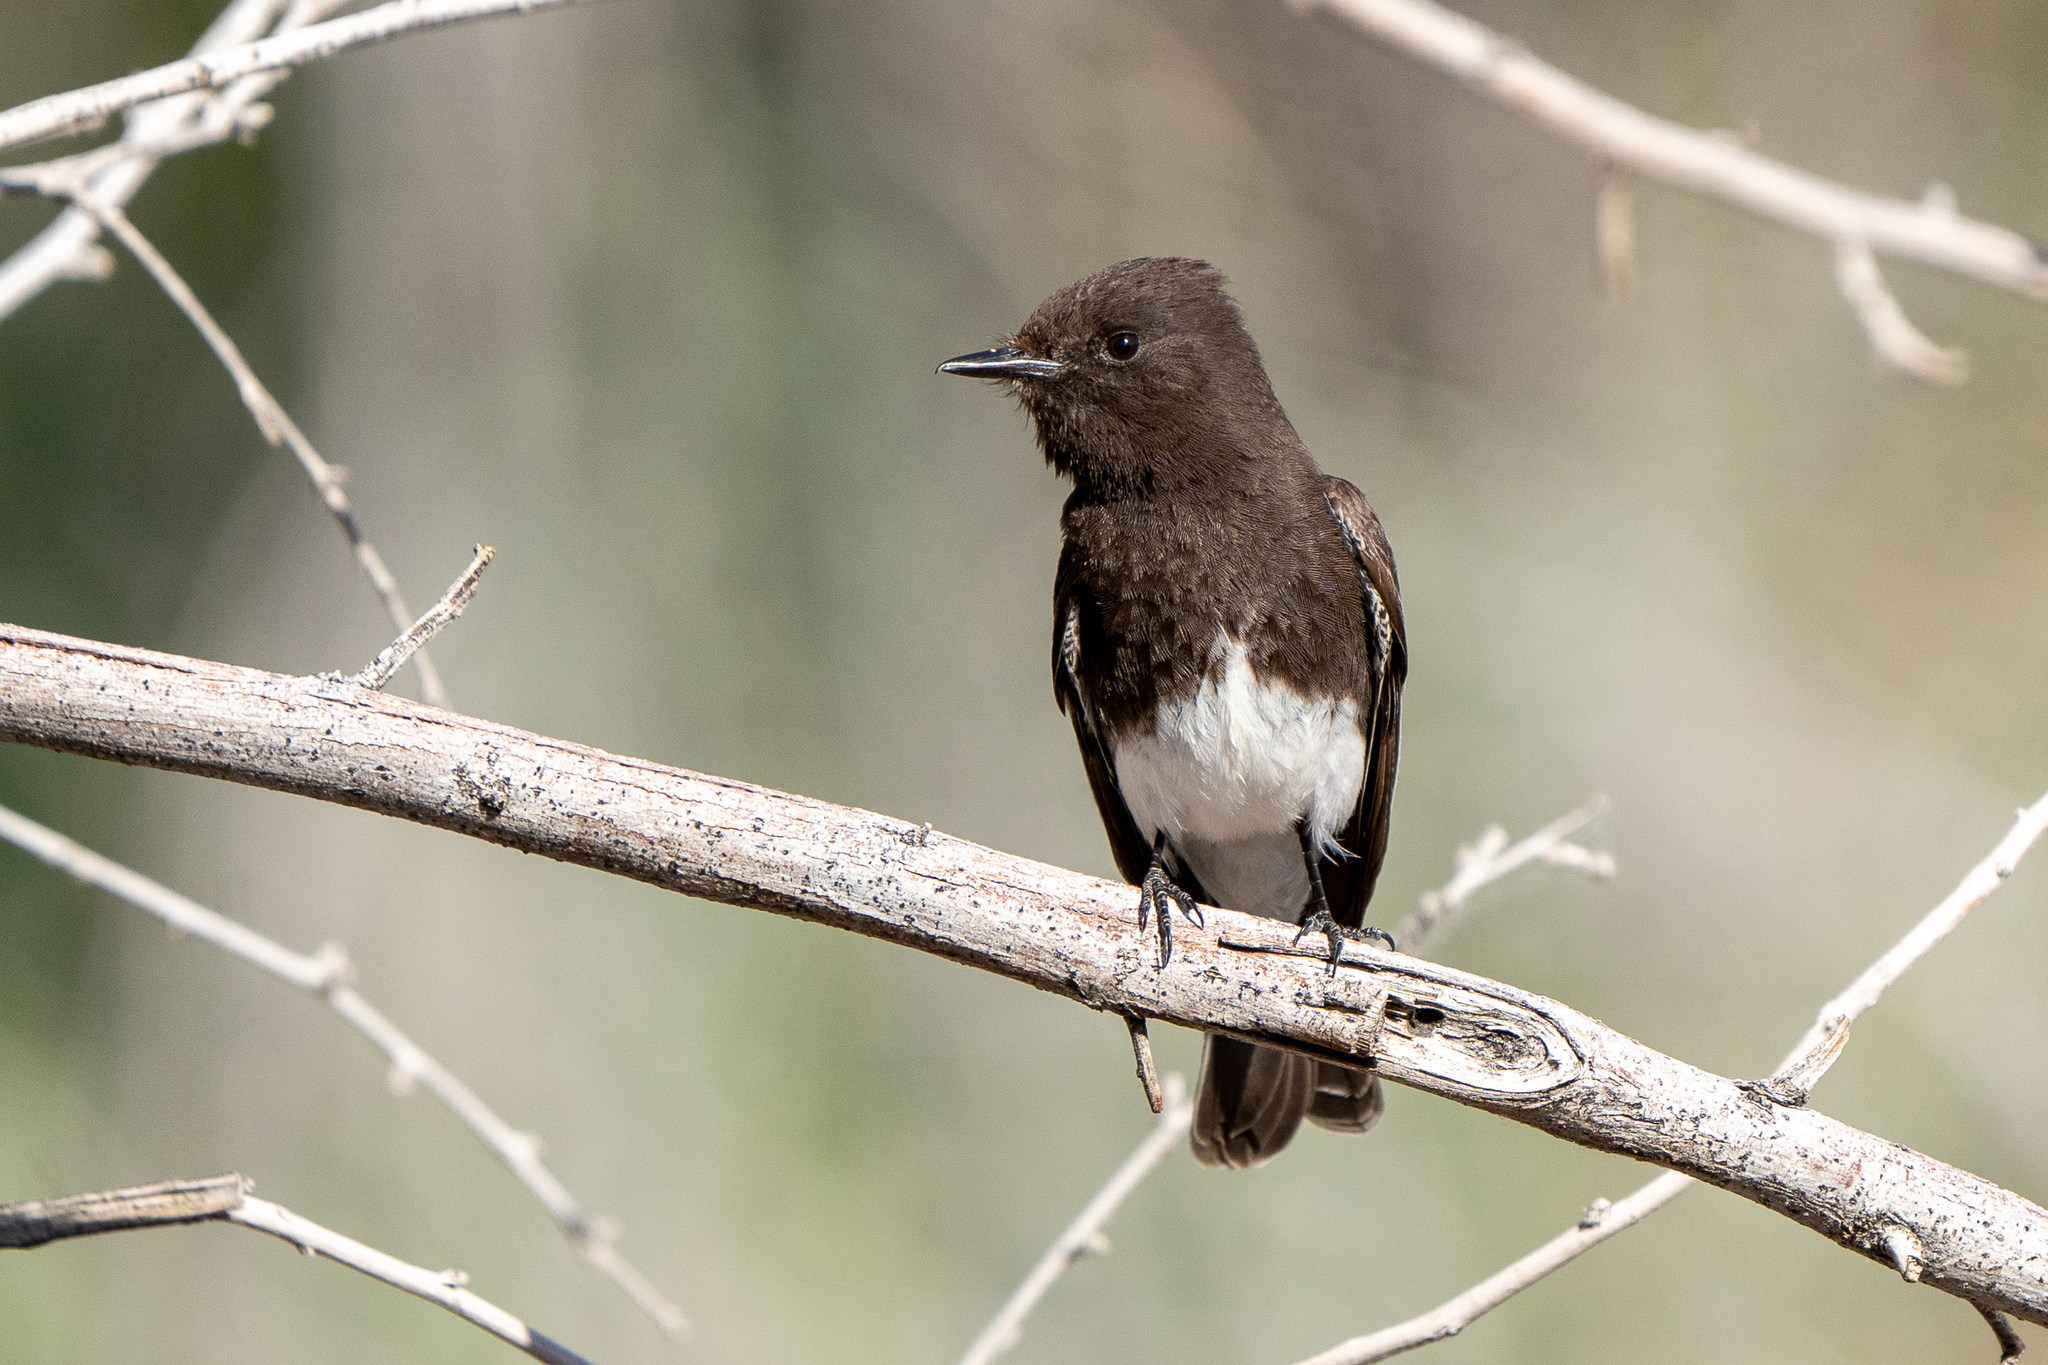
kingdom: Animalia
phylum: Chordata
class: Aves
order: Passeriformes
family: Tyrannidae
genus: Sayornis
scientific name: Sayornis nigricans
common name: Black phoebe
